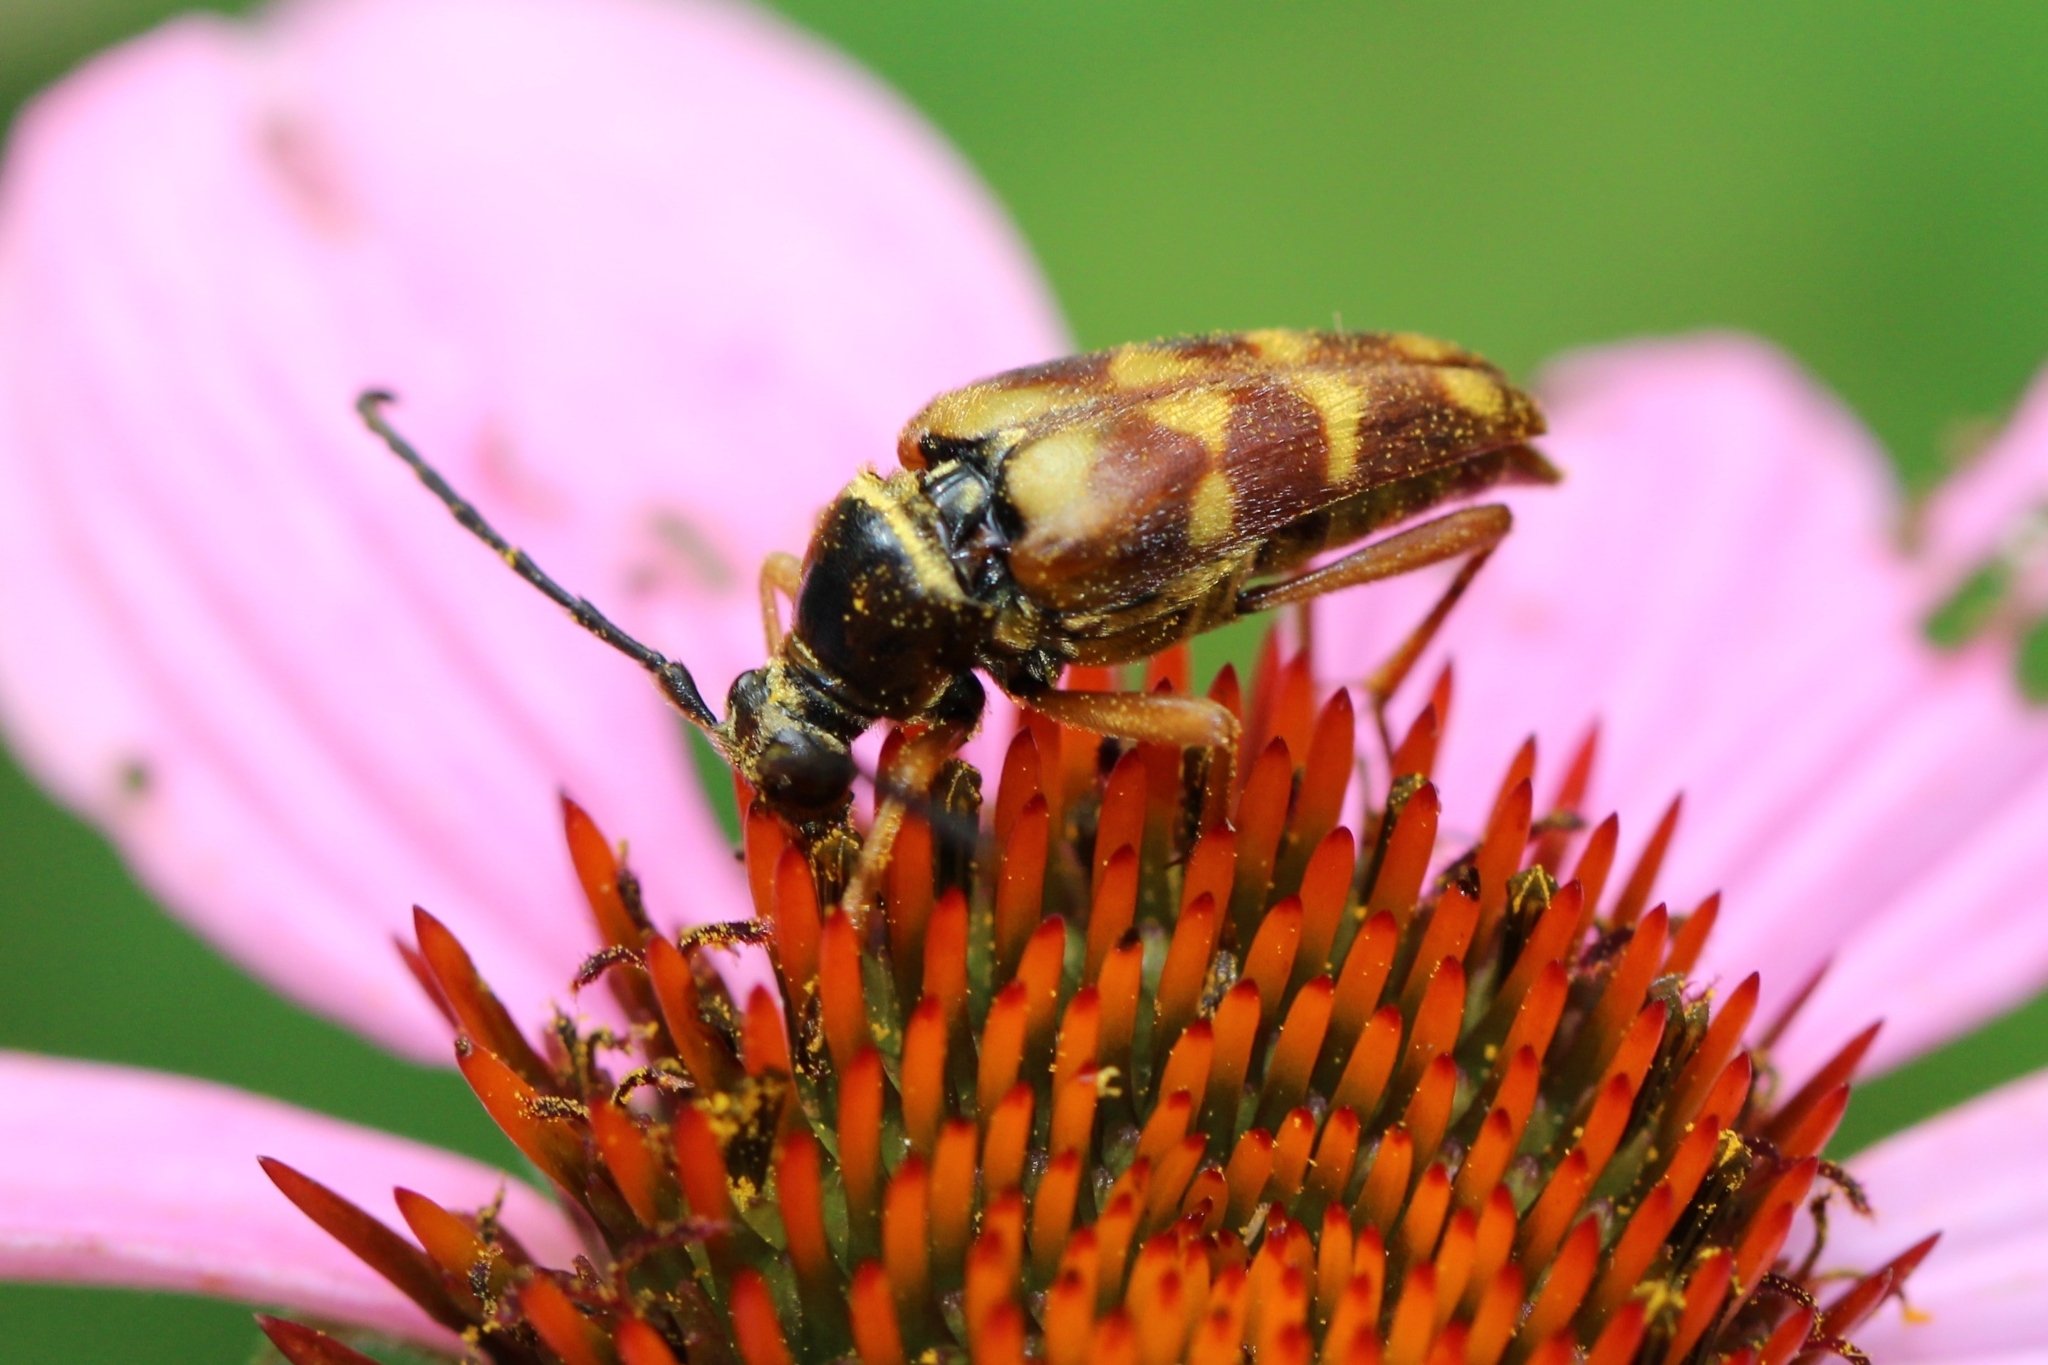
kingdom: Animalia
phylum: Arthropoda
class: Insecta
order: Coleoptera
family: Cerambycidae
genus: Typocerus
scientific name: Typocerus velutinus
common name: Banded longhorn beetle
